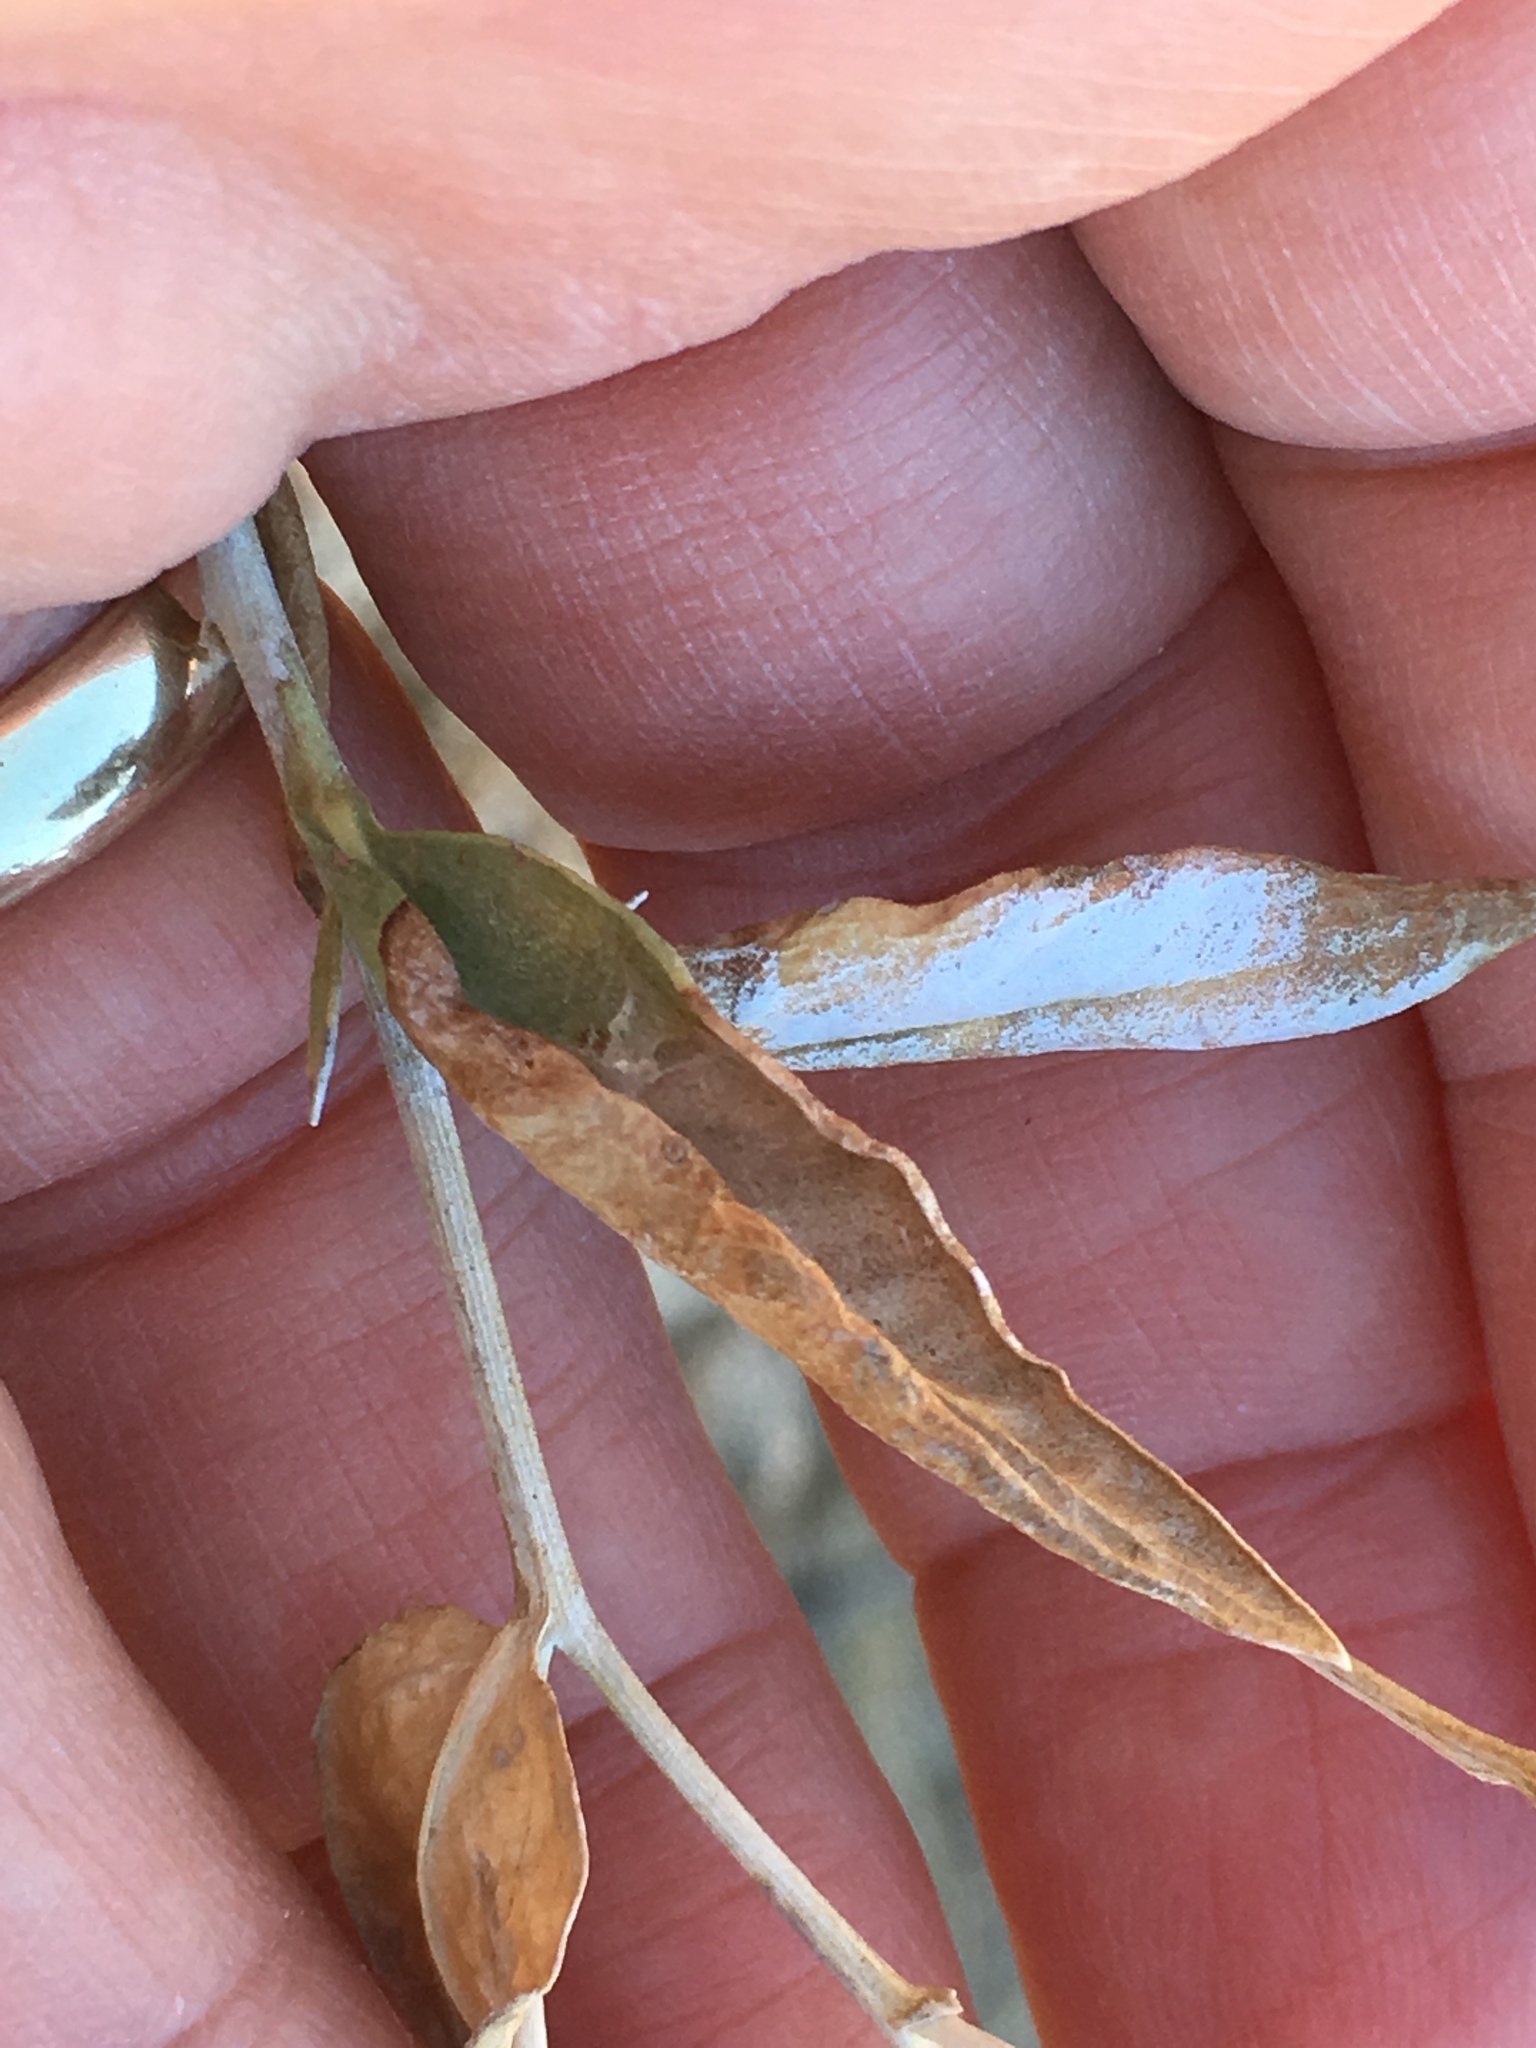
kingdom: Plantae
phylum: Tracheophyta
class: Magnoliopsida
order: Asterales
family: Asteraceae
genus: Trixis
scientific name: Trixis californica
